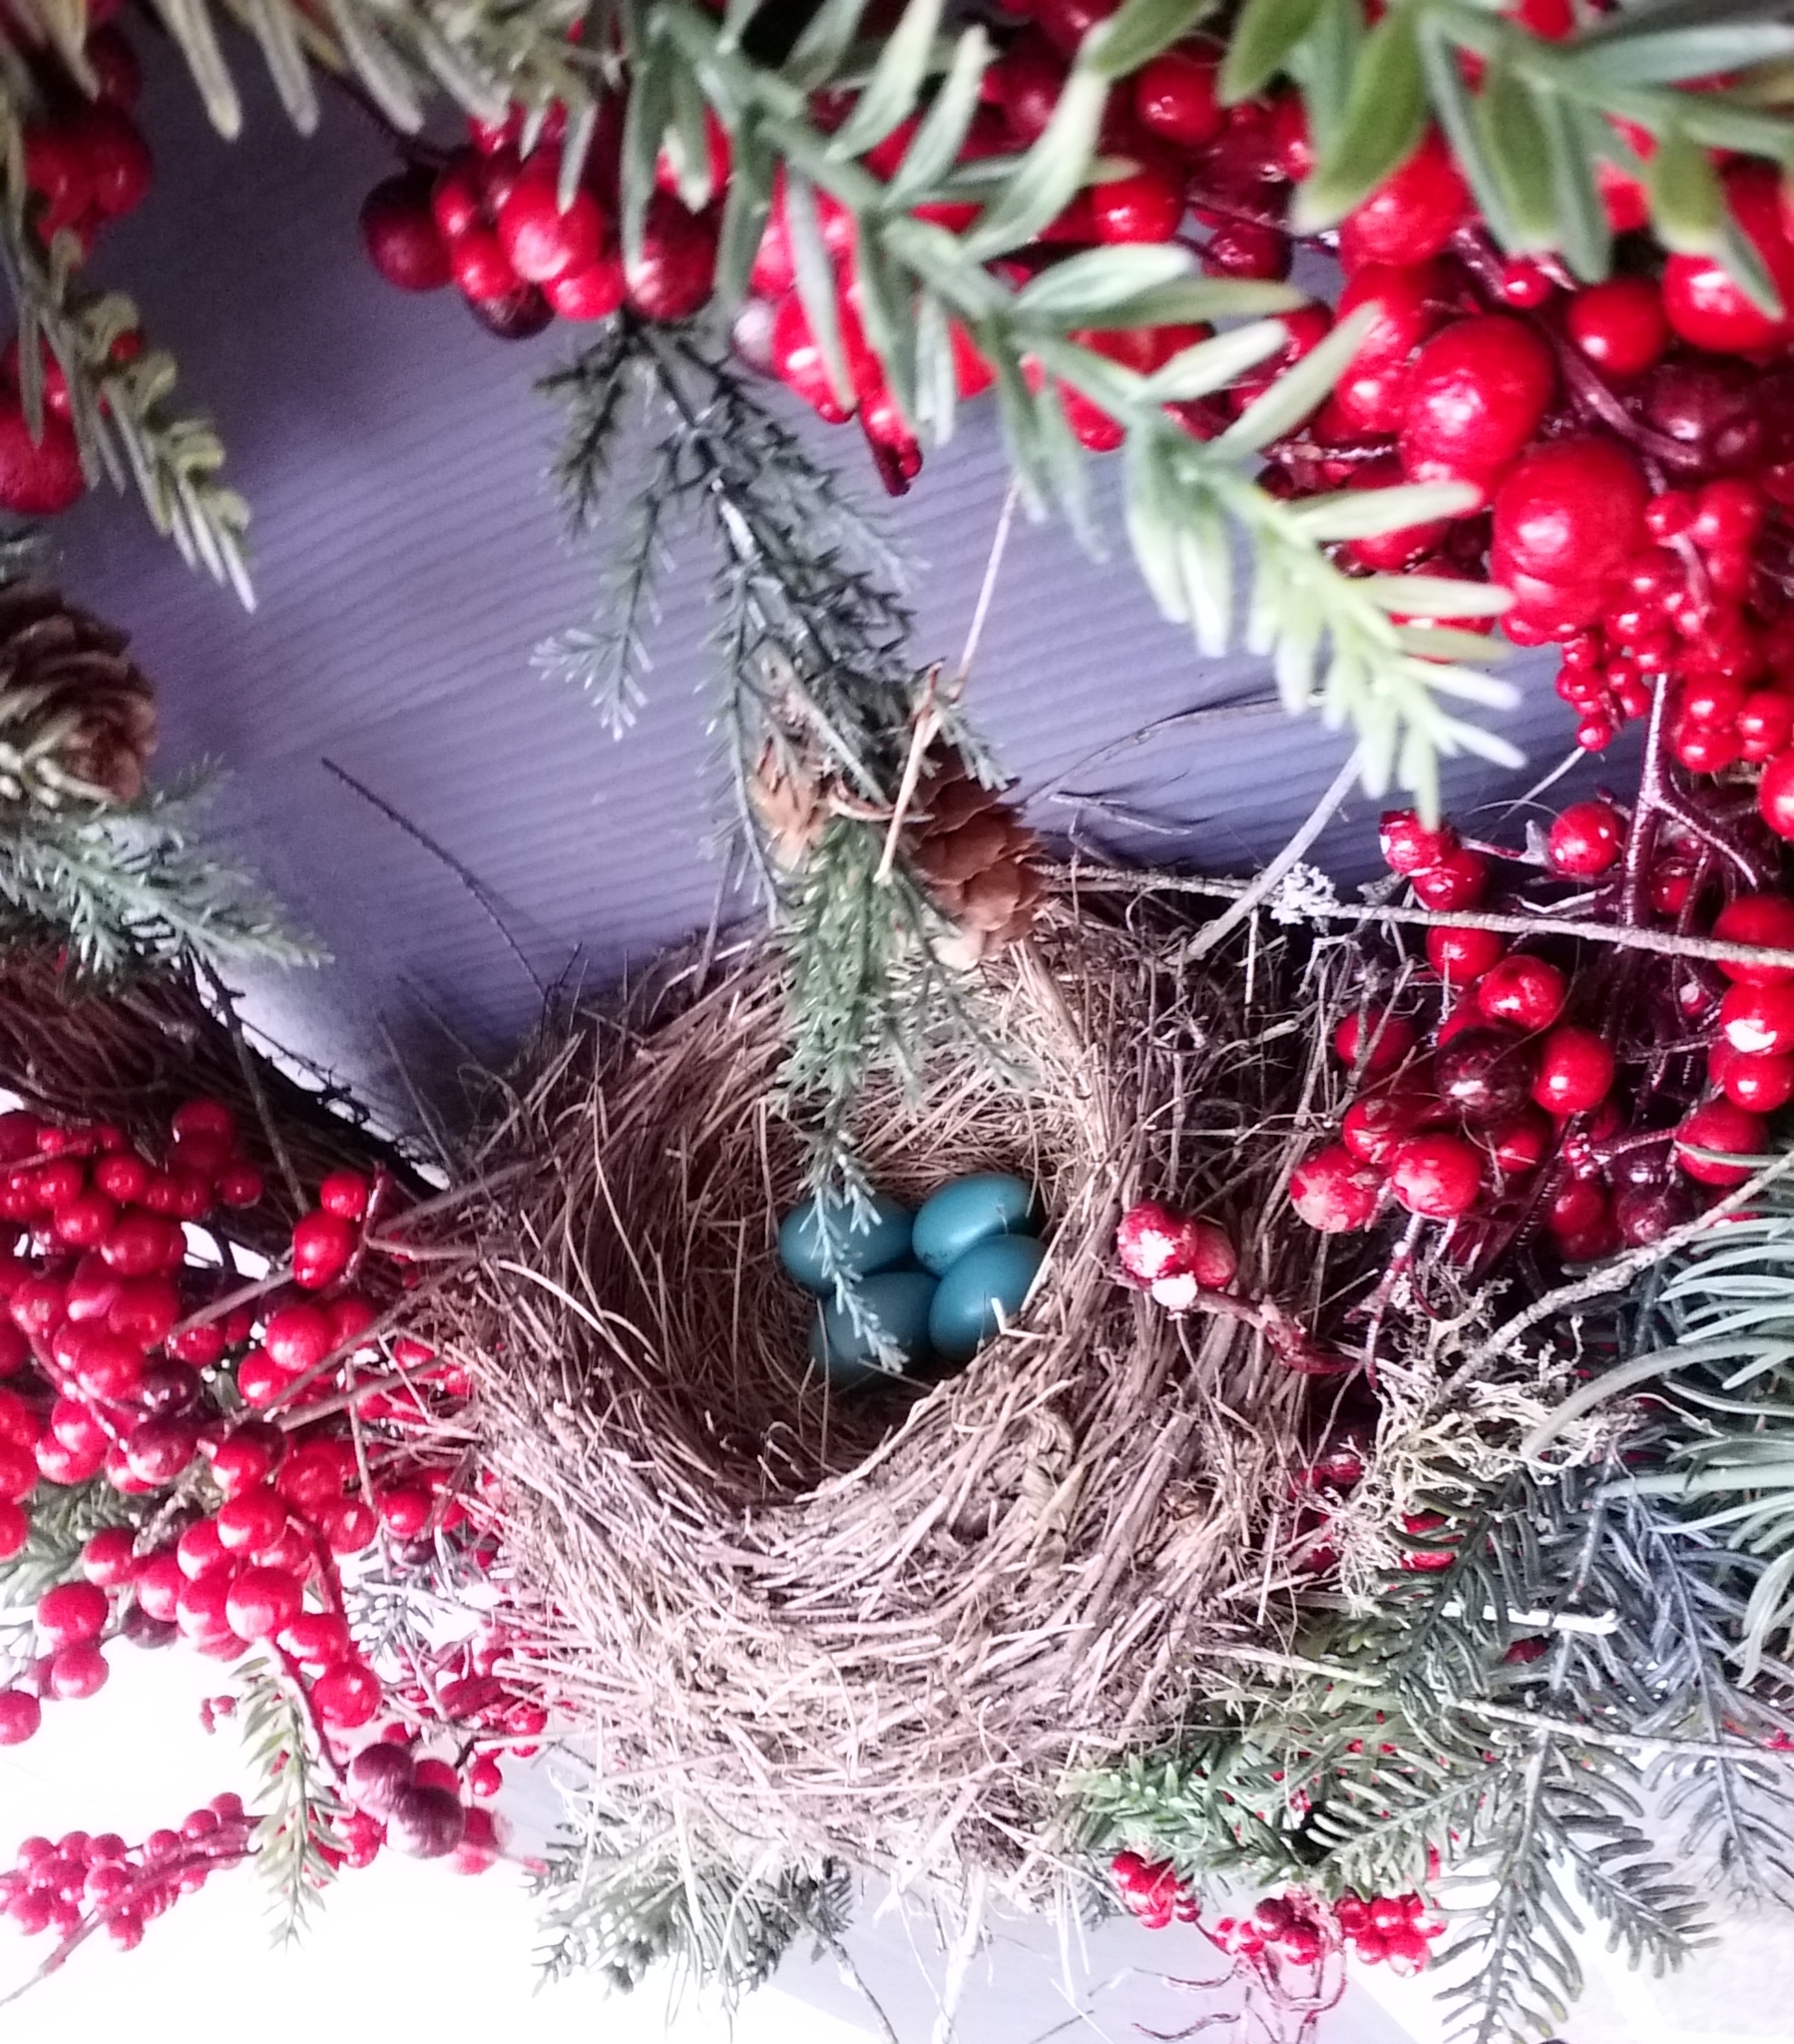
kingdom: Animalia
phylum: Chordata
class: Aves
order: Passeriformes
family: Turdidae
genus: Turdus
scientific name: Turdus migratorius
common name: American robin
